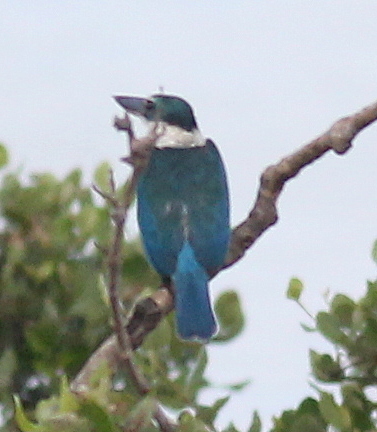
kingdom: Animalia
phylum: Chordata
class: Aves
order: Coraciiformes
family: Alcedinidae
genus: Todiramphus
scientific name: Todiramphus chloris
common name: Collared kingfisher
